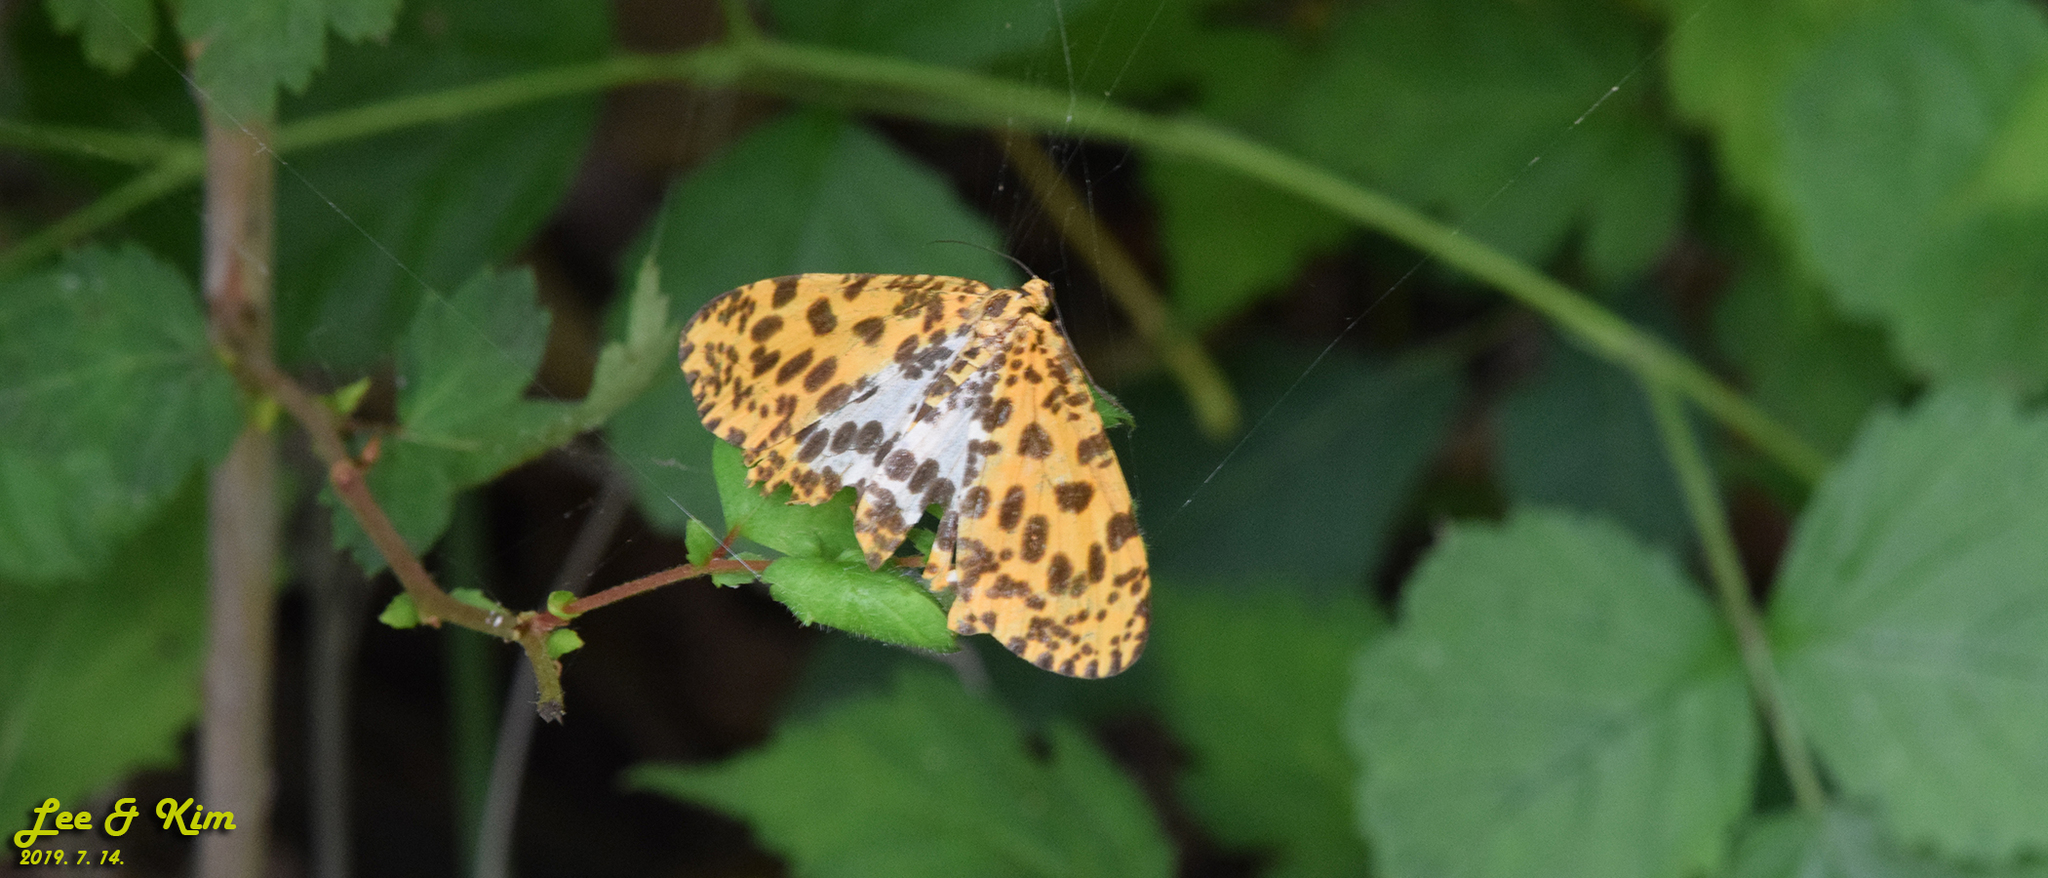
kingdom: Animalia
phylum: Arthropoda
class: Insecta
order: Lepidoptera
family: Geometridae
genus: Obeidia
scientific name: Obeidia Epobeidia tigrata
